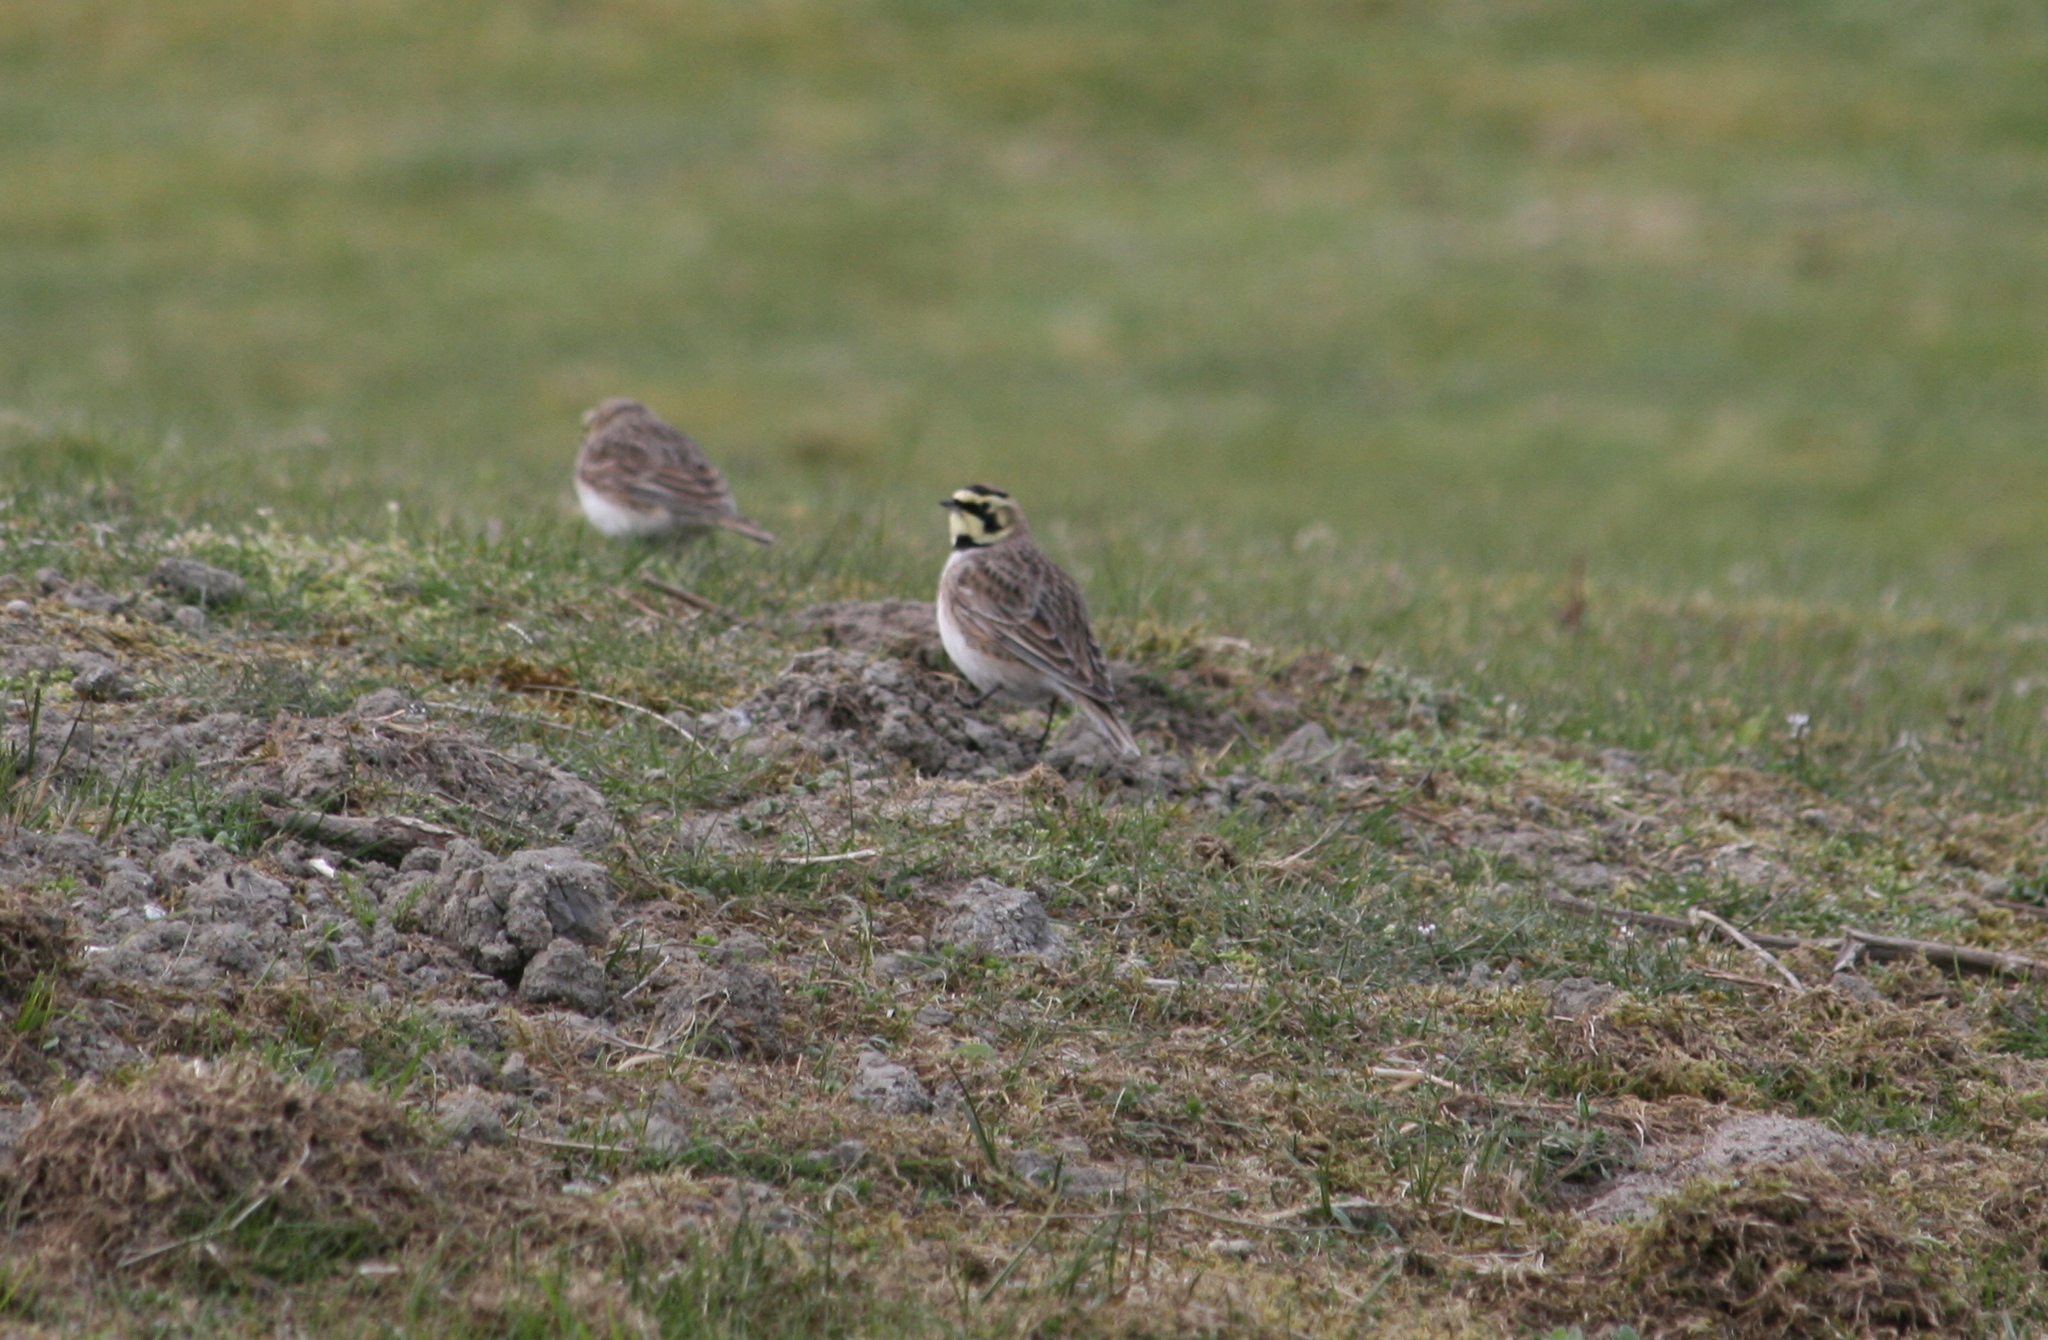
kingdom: Animalia
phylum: Chordata
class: Aves
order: Passeriformes
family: Alaudidae
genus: Eremophila
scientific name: Eremophila alpestris
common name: Horned lark
